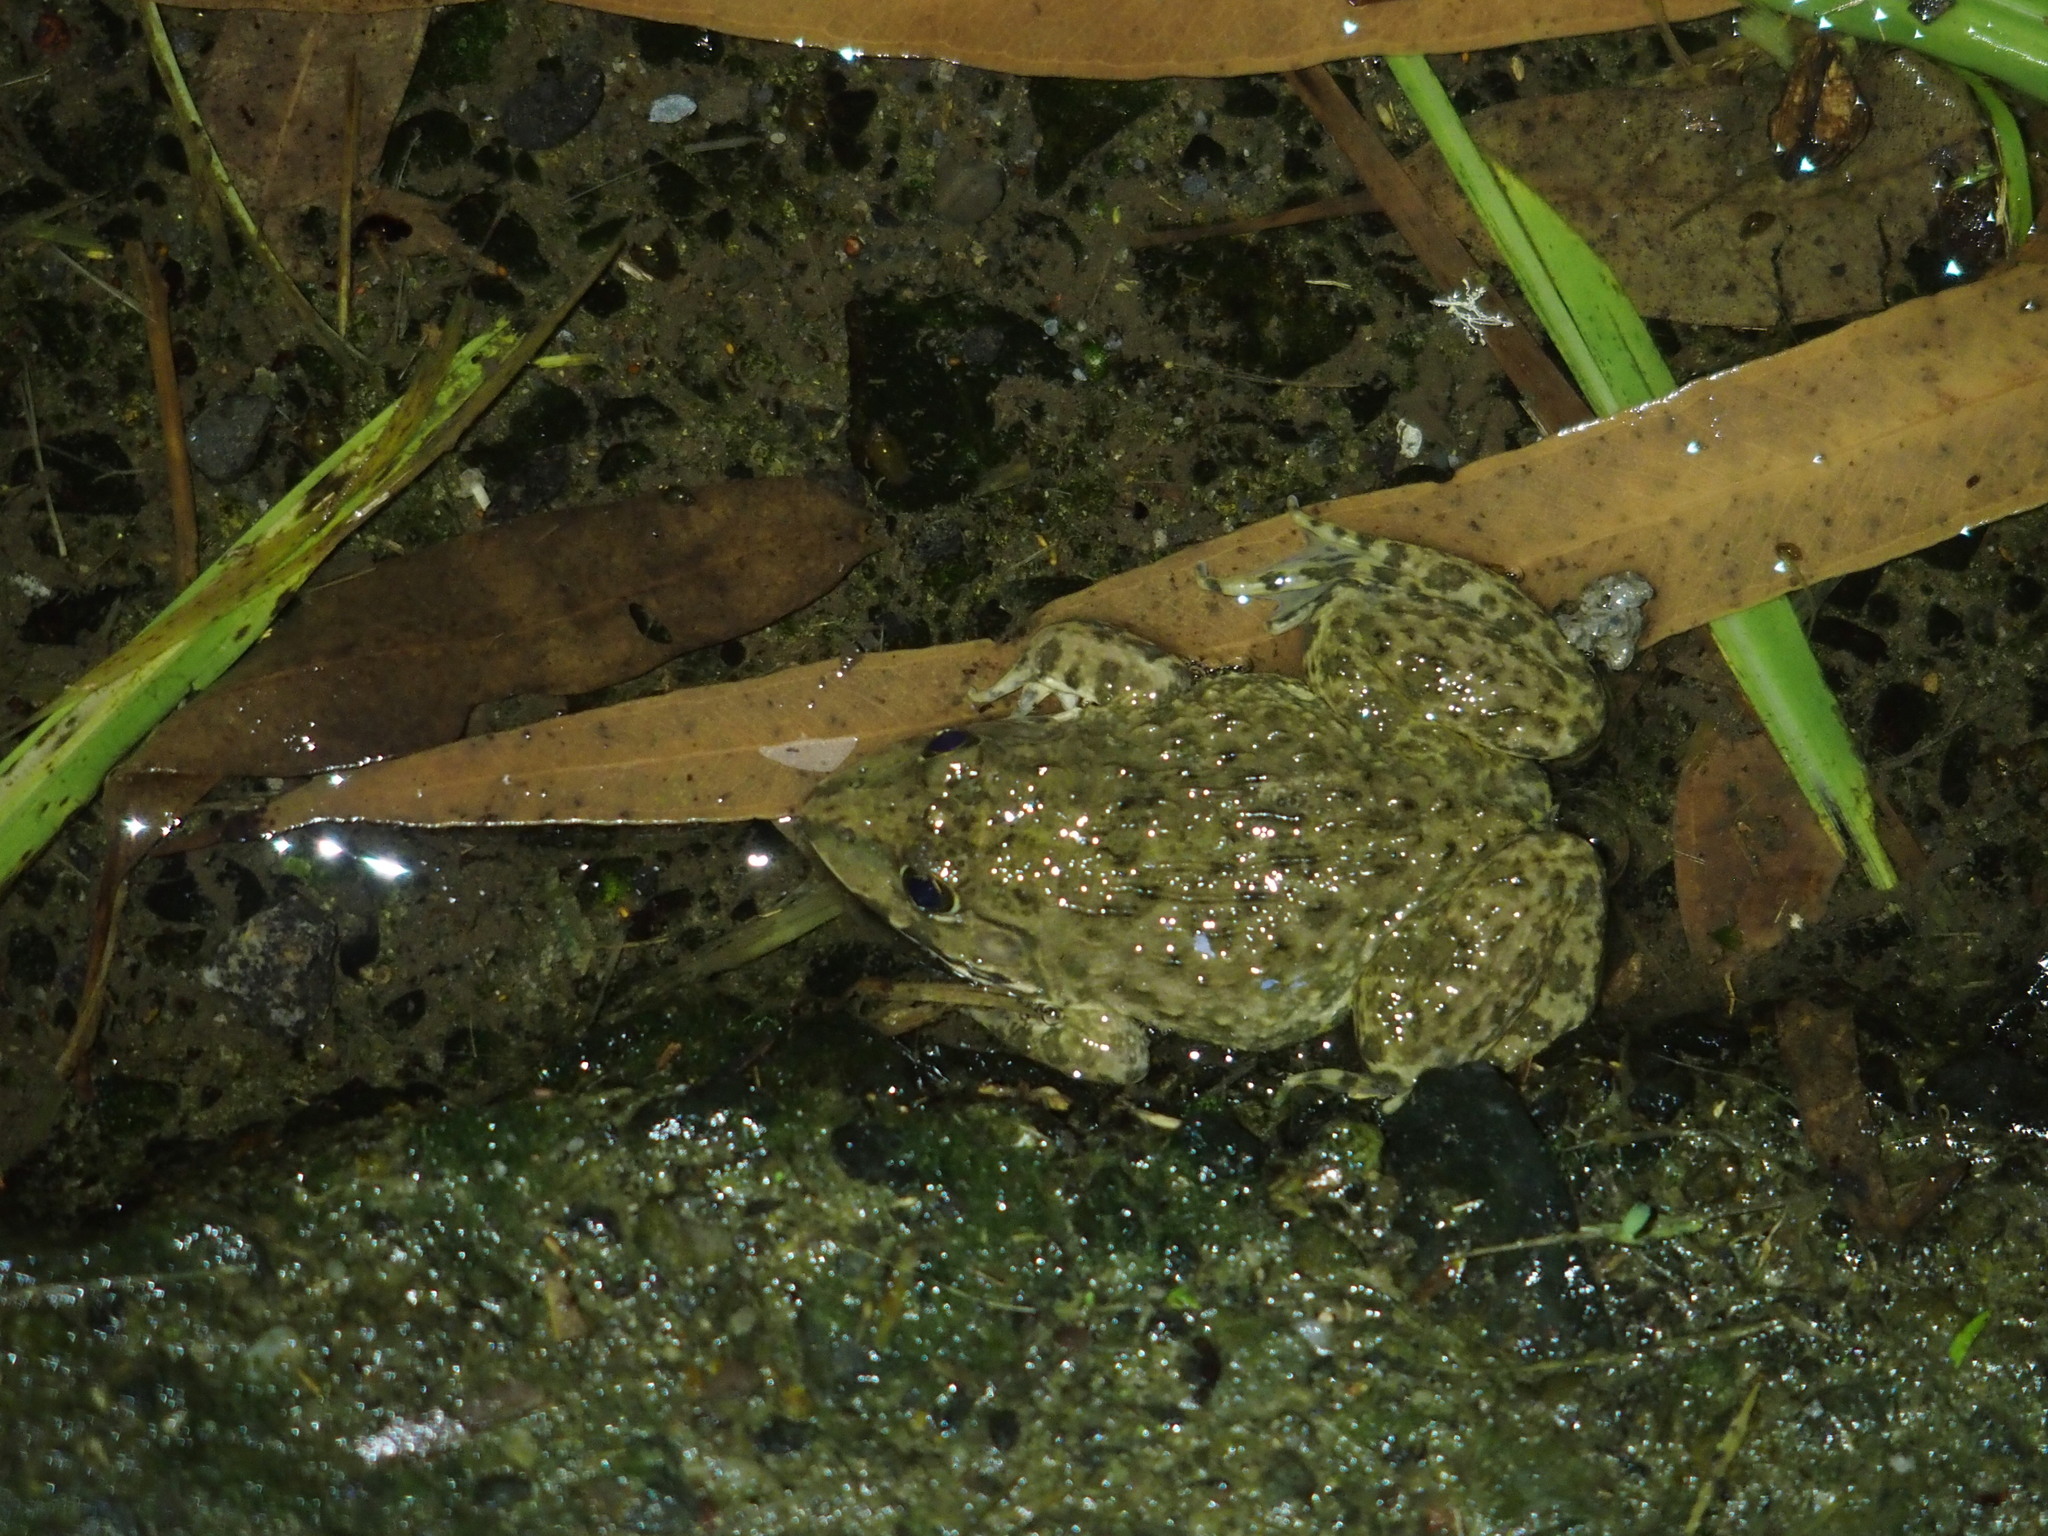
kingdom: Animalia
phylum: Chordata
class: Amphibia
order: Anura
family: Dicroglossidae
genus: Hoplobatrachus
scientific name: Hoplobatrachus rugulosus
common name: Chinese edible frog
